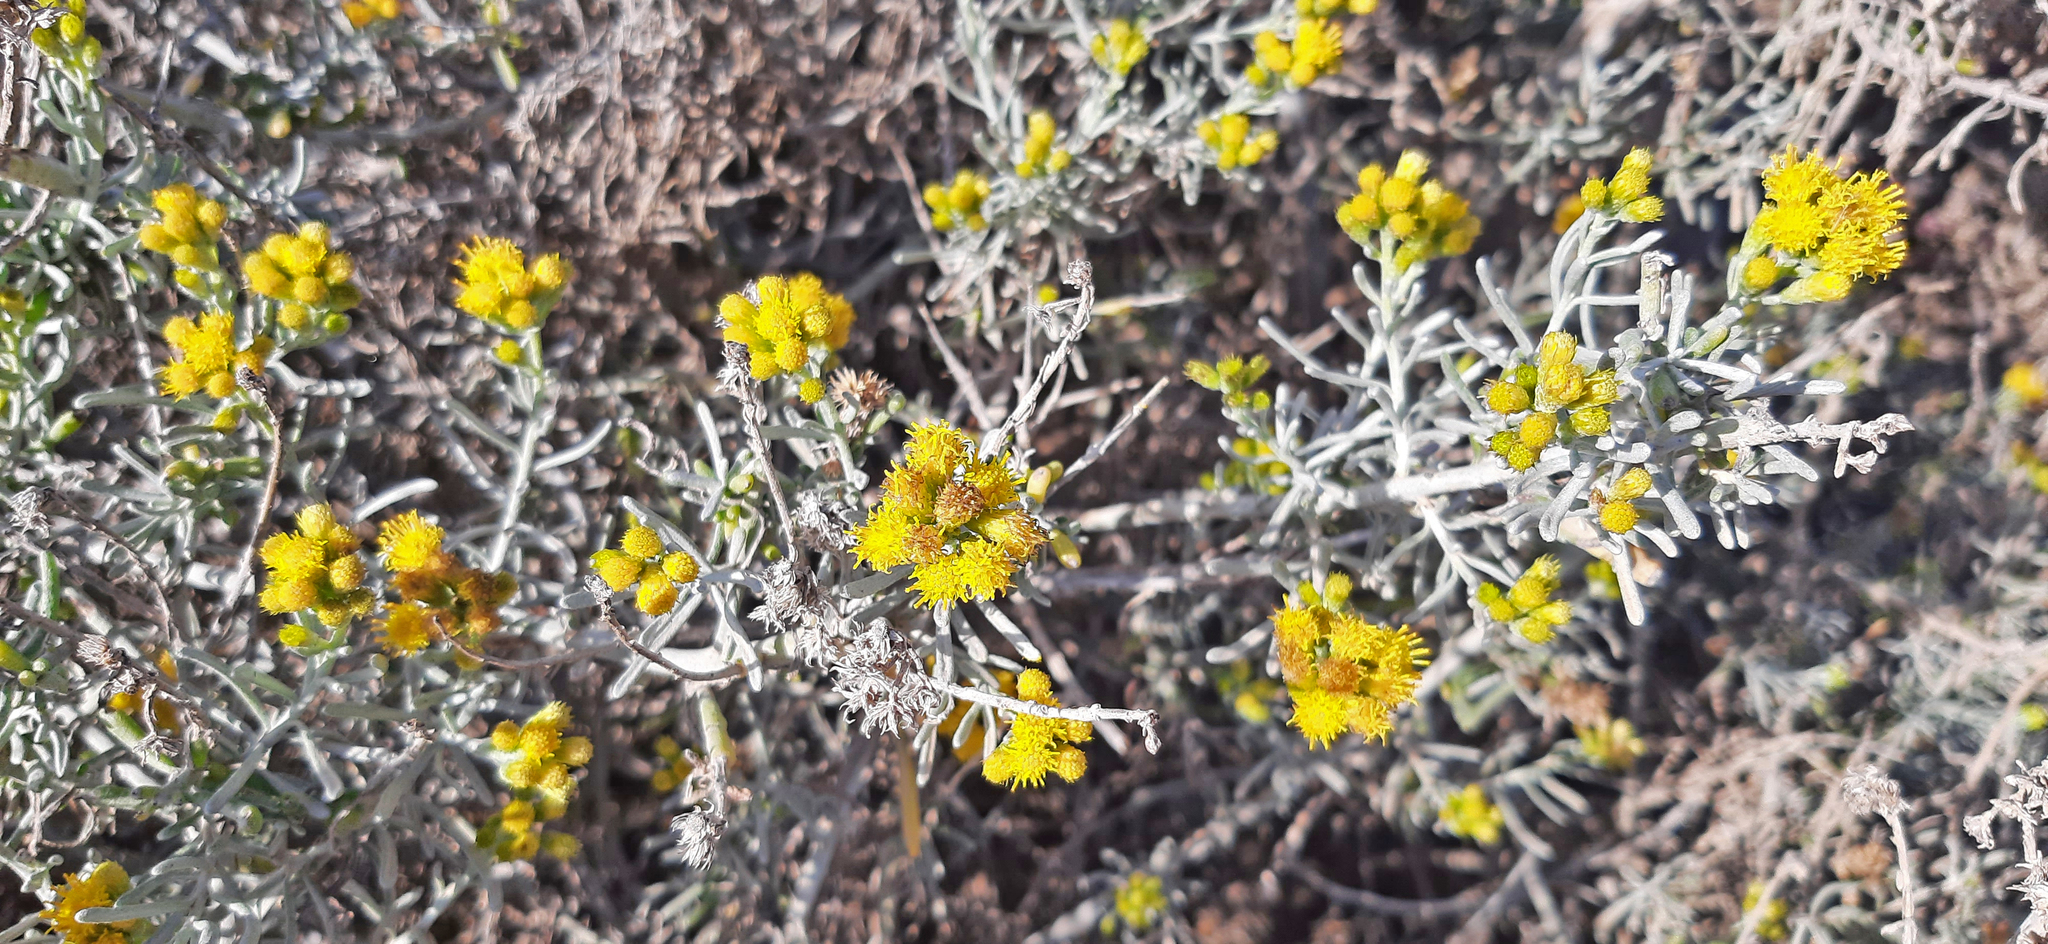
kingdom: Plantae
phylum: Tracheophyta
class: Magnoliopsida
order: Asterales
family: Asteraceae
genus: Schizogyne
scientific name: Schizogyne sericea
